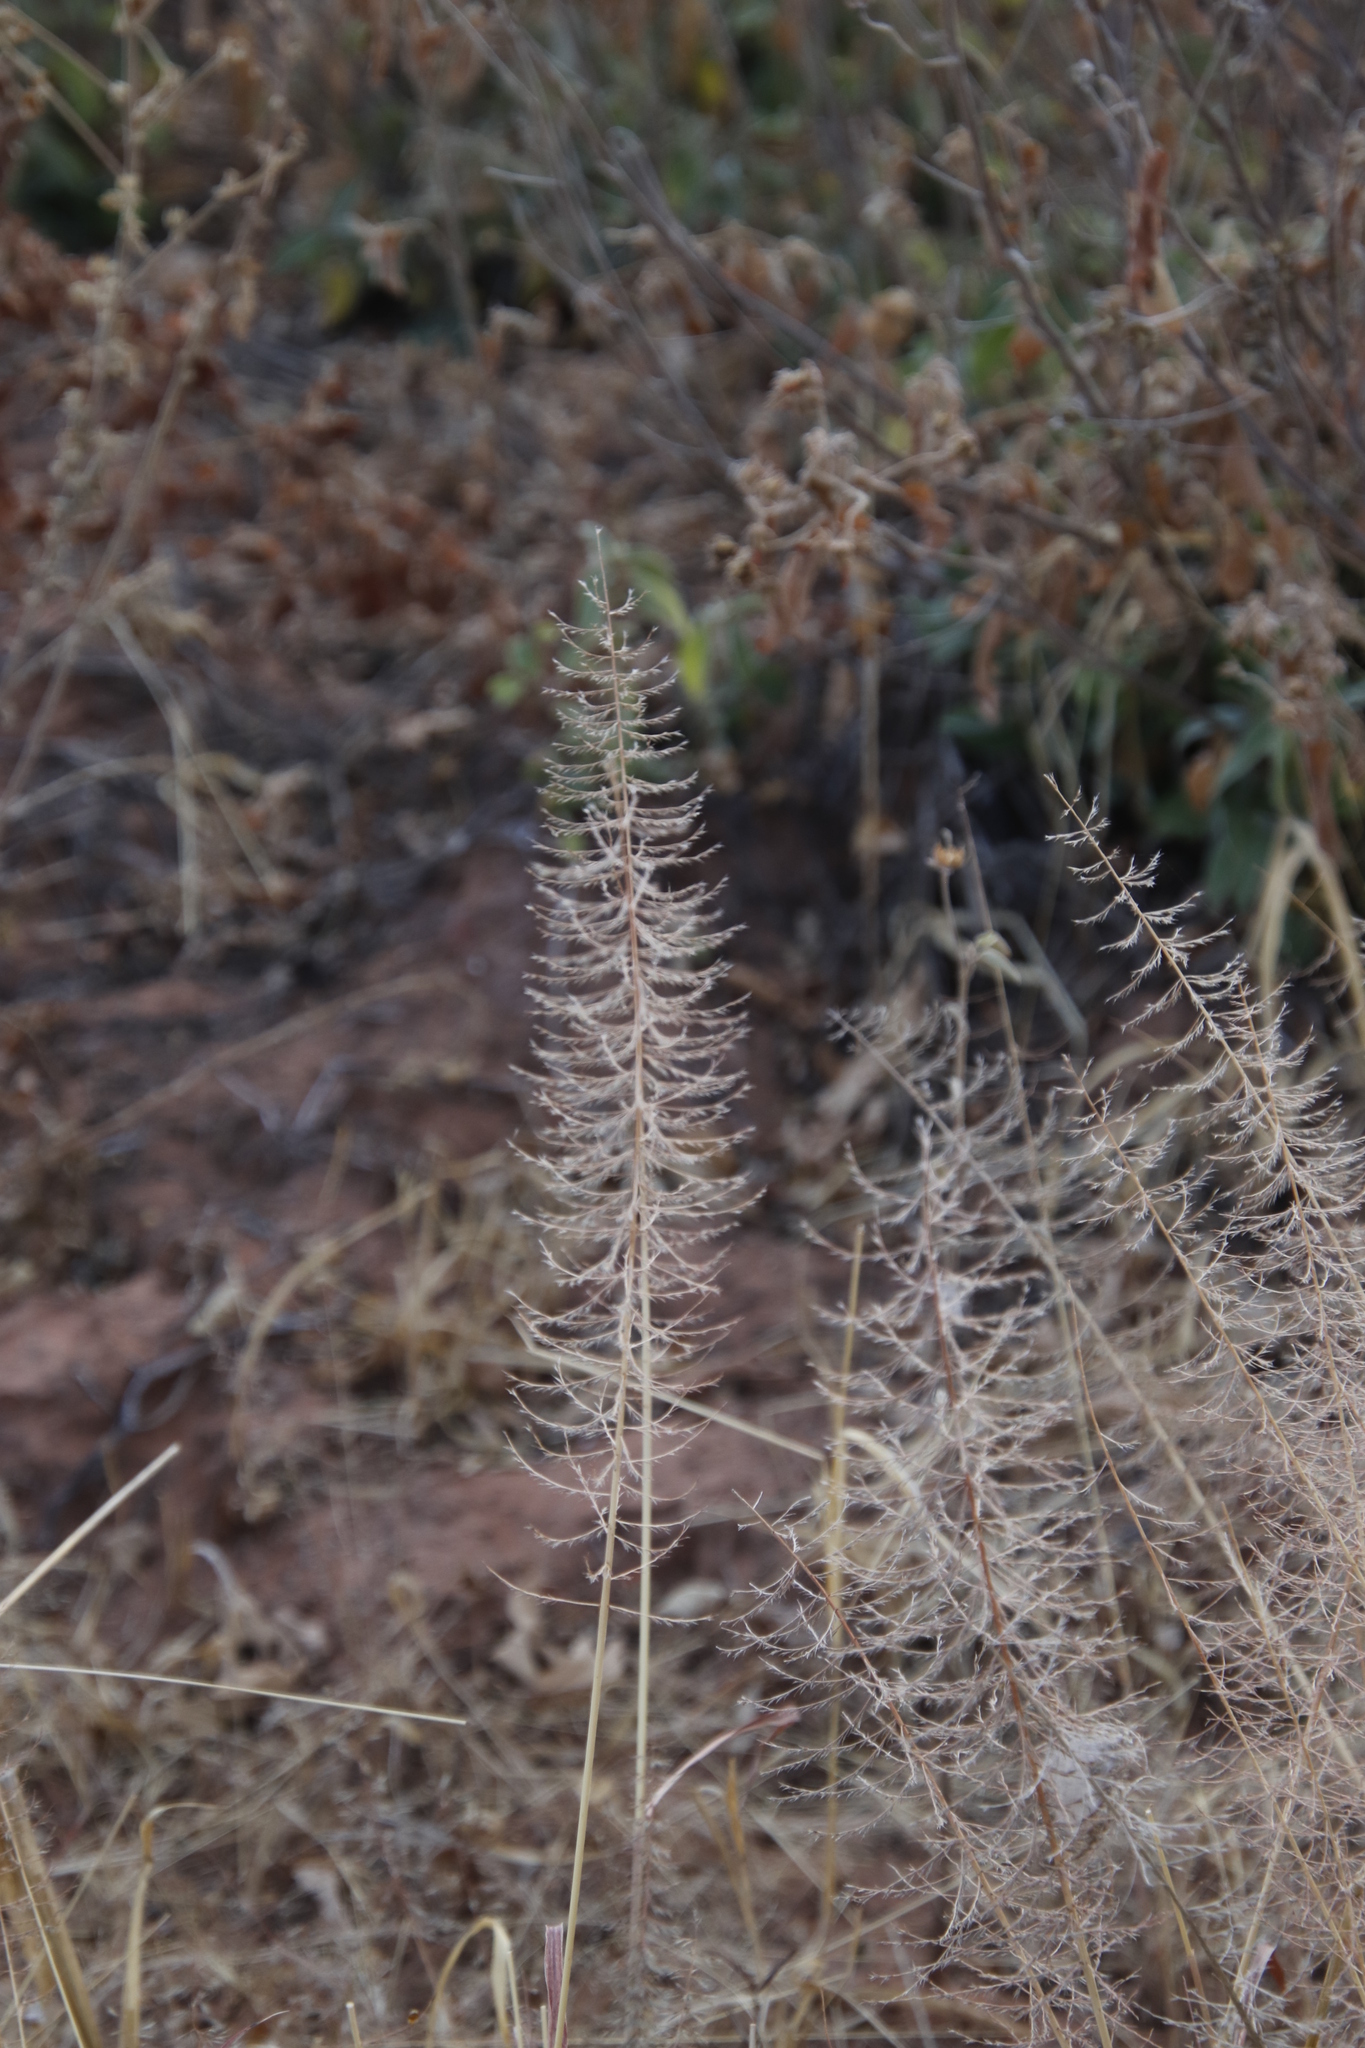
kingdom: Plantae
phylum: Tracheophyta
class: Liliopsida
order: Poales
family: Poaceae
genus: Pogonarthria
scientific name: Pogonarthria squarrosa
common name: Grass
